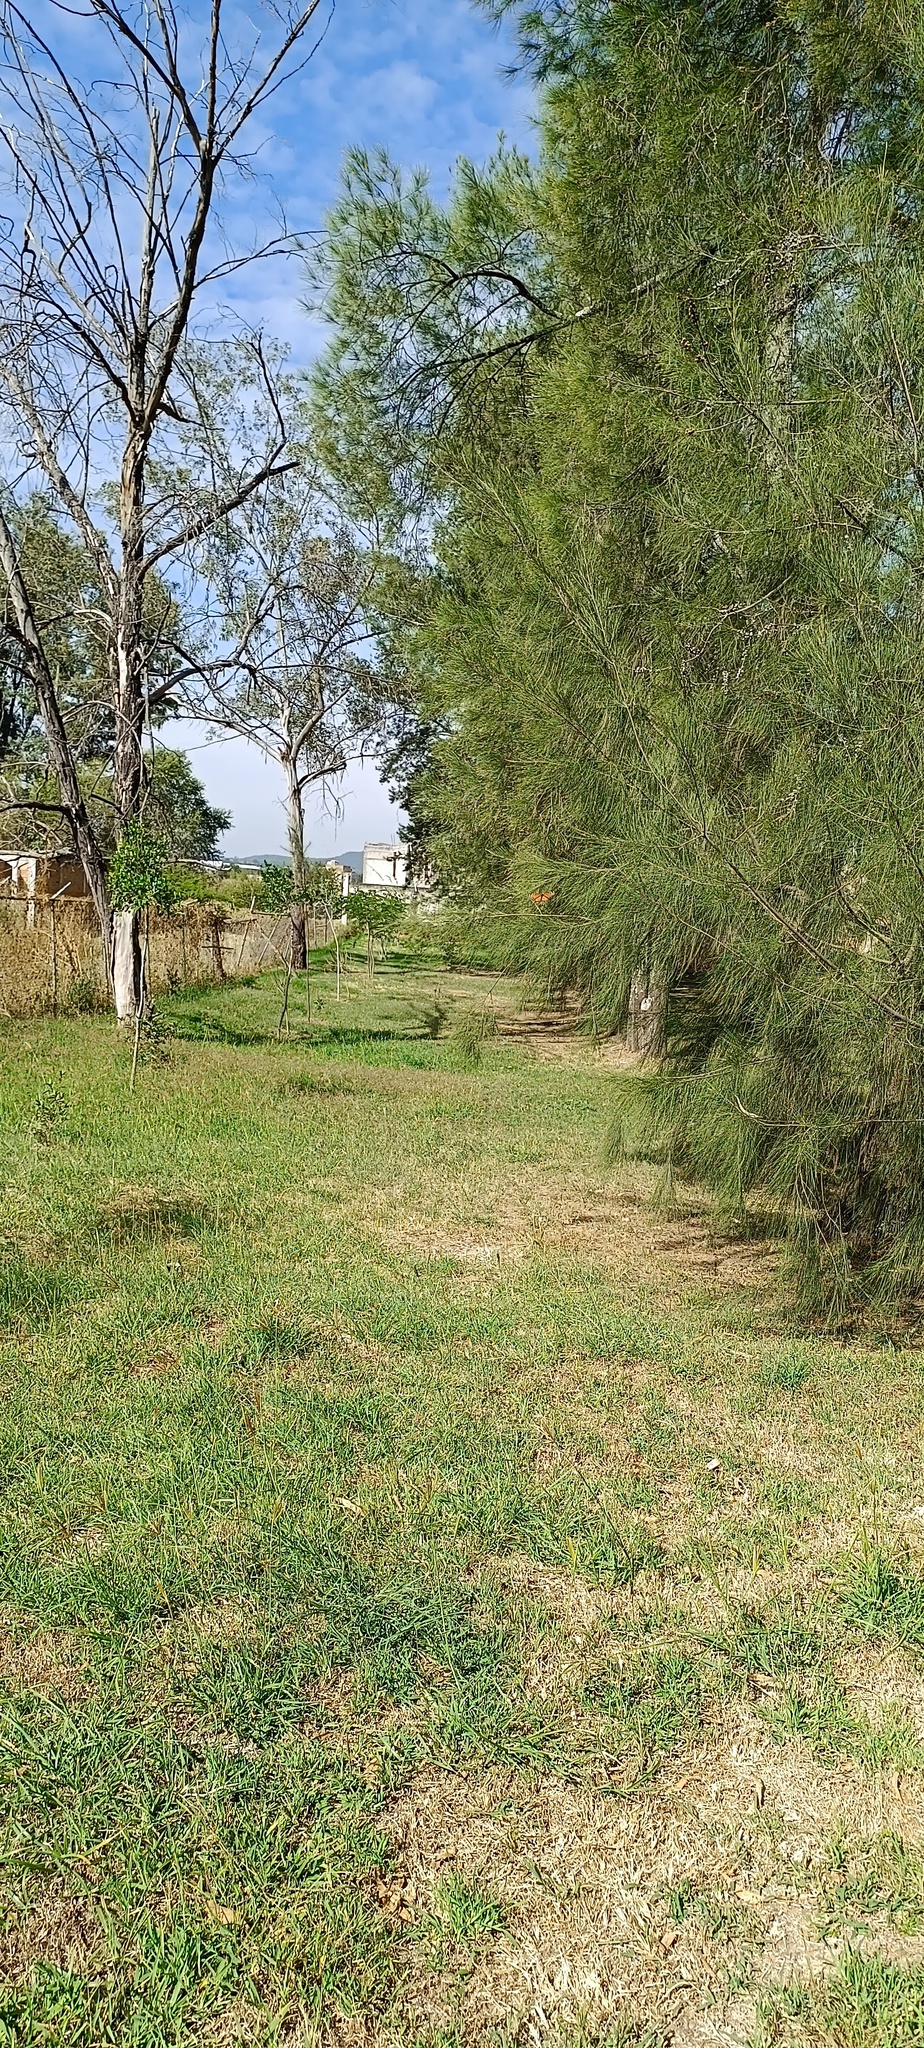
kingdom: Animalia
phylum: Arthropoda
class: Insecta
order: Lepidoptera
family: Nymphalidae
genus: Danaus
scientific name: Danaus plexippus
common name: Monarch
